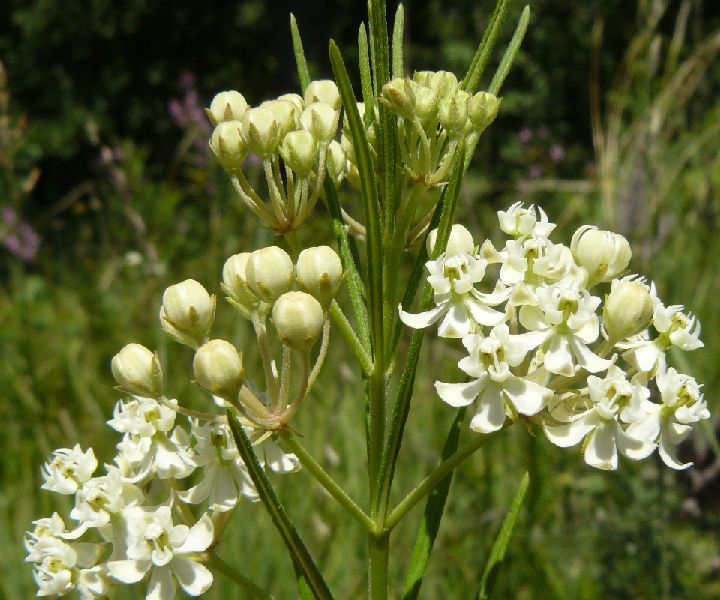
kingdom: Plantae
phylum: Tracheophyta
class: Magnoliopsida
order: Gentianales
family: Apocynaceae
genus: Asclepias
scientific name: Asclepias verticillata
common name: Eastern whorled milkweed
